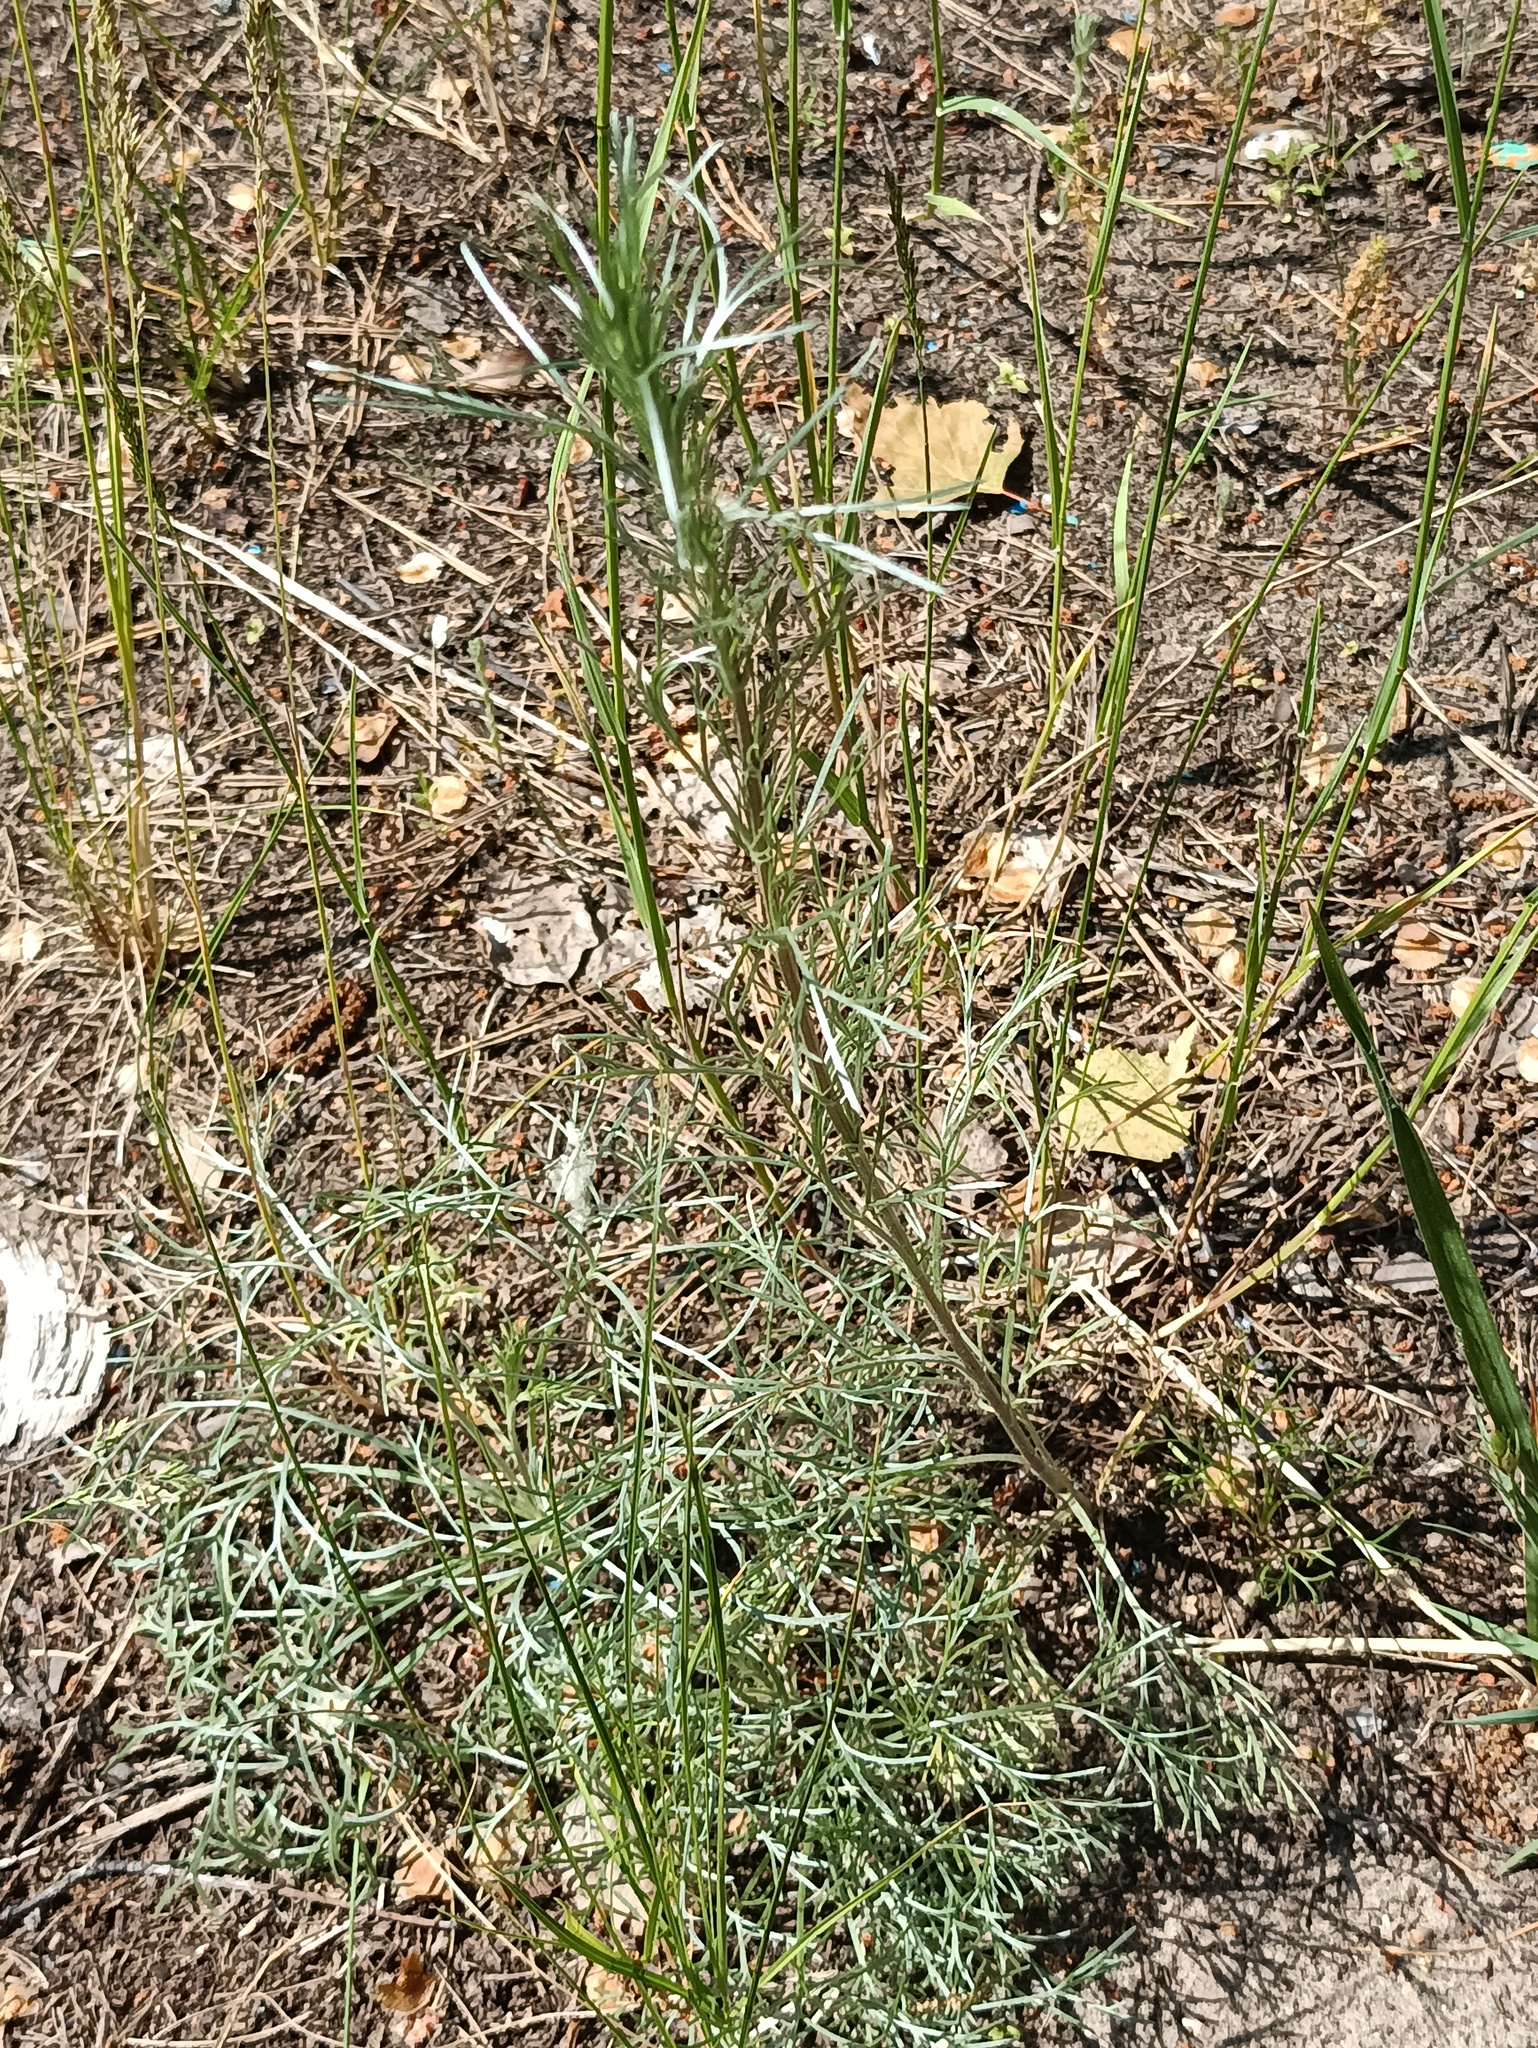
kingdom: Plantae
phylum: Tracheophyta
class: Magnoliopsida
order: Asterales
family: Asteraceae
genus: Artemisia
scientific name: Artemisia campestris
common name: Field wormwood
